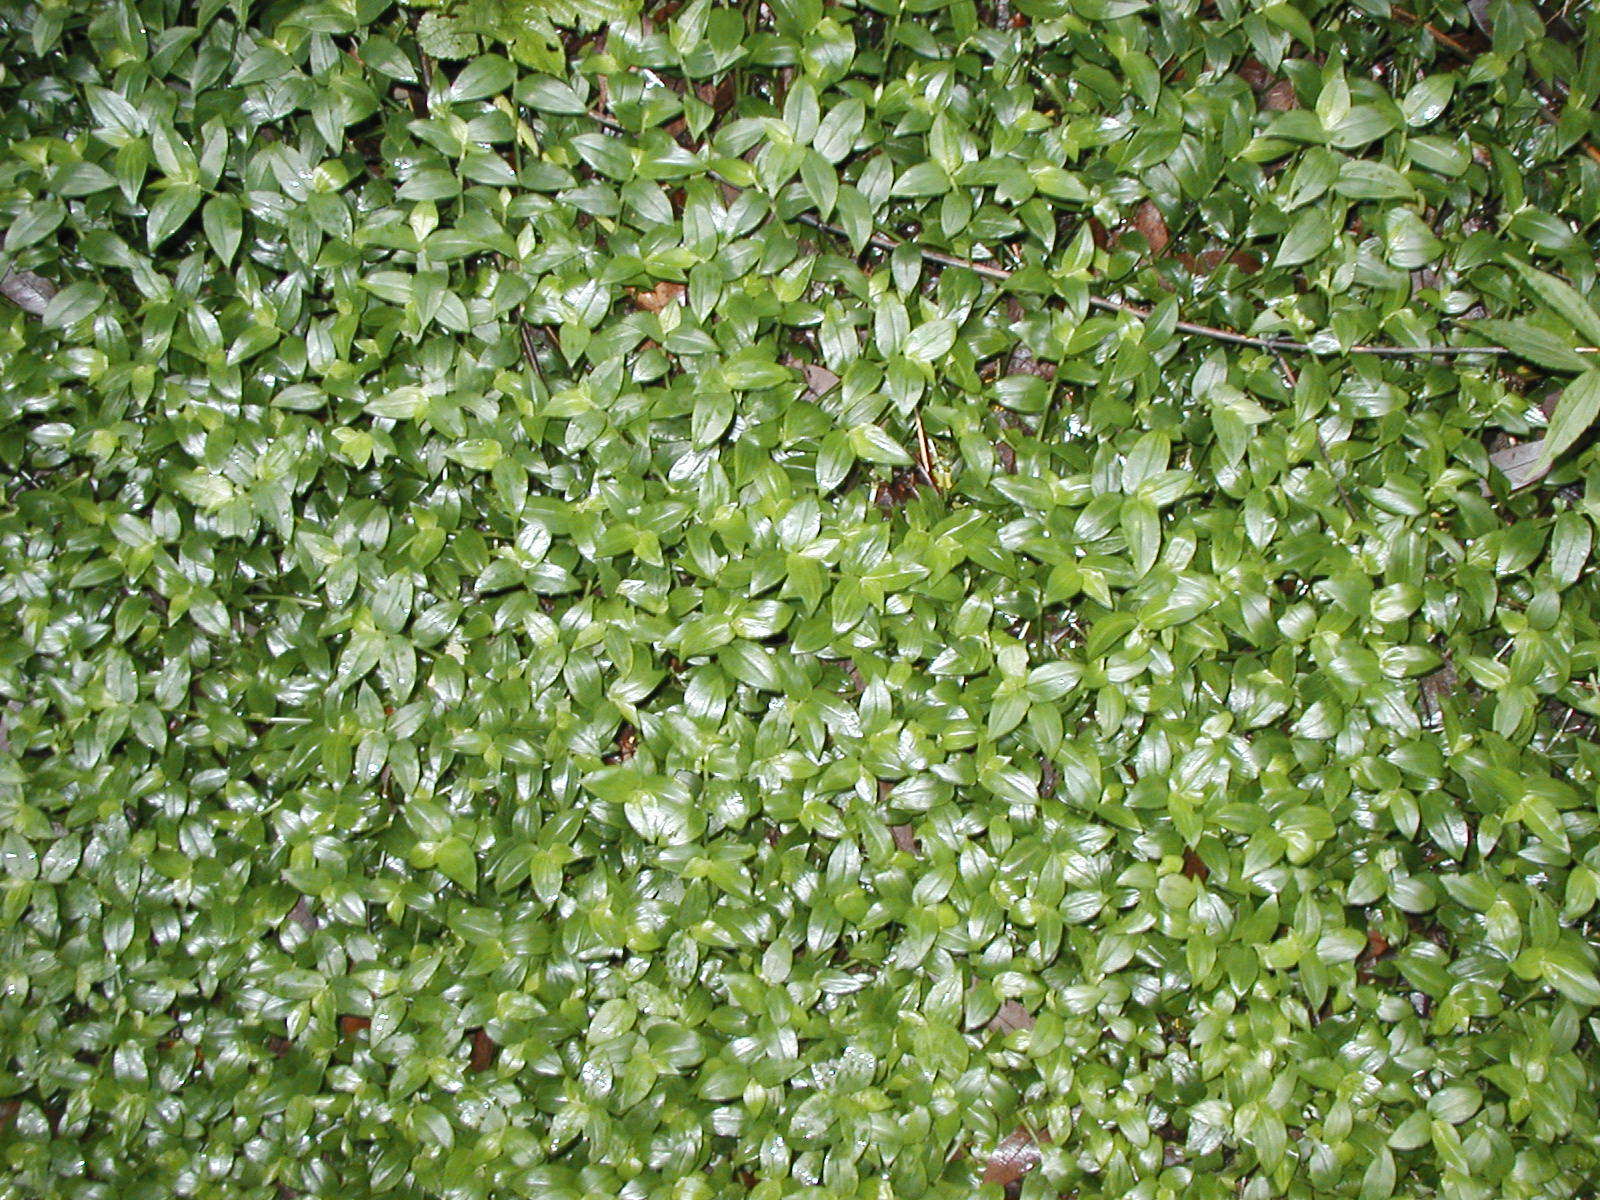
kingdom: Plantae
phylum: Tracheophyta
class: Liliopsida
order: Commelinales
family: Commelinaceae
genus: Tradescantia
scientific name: Tradescantia fluminensis
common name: Wandering-jew
